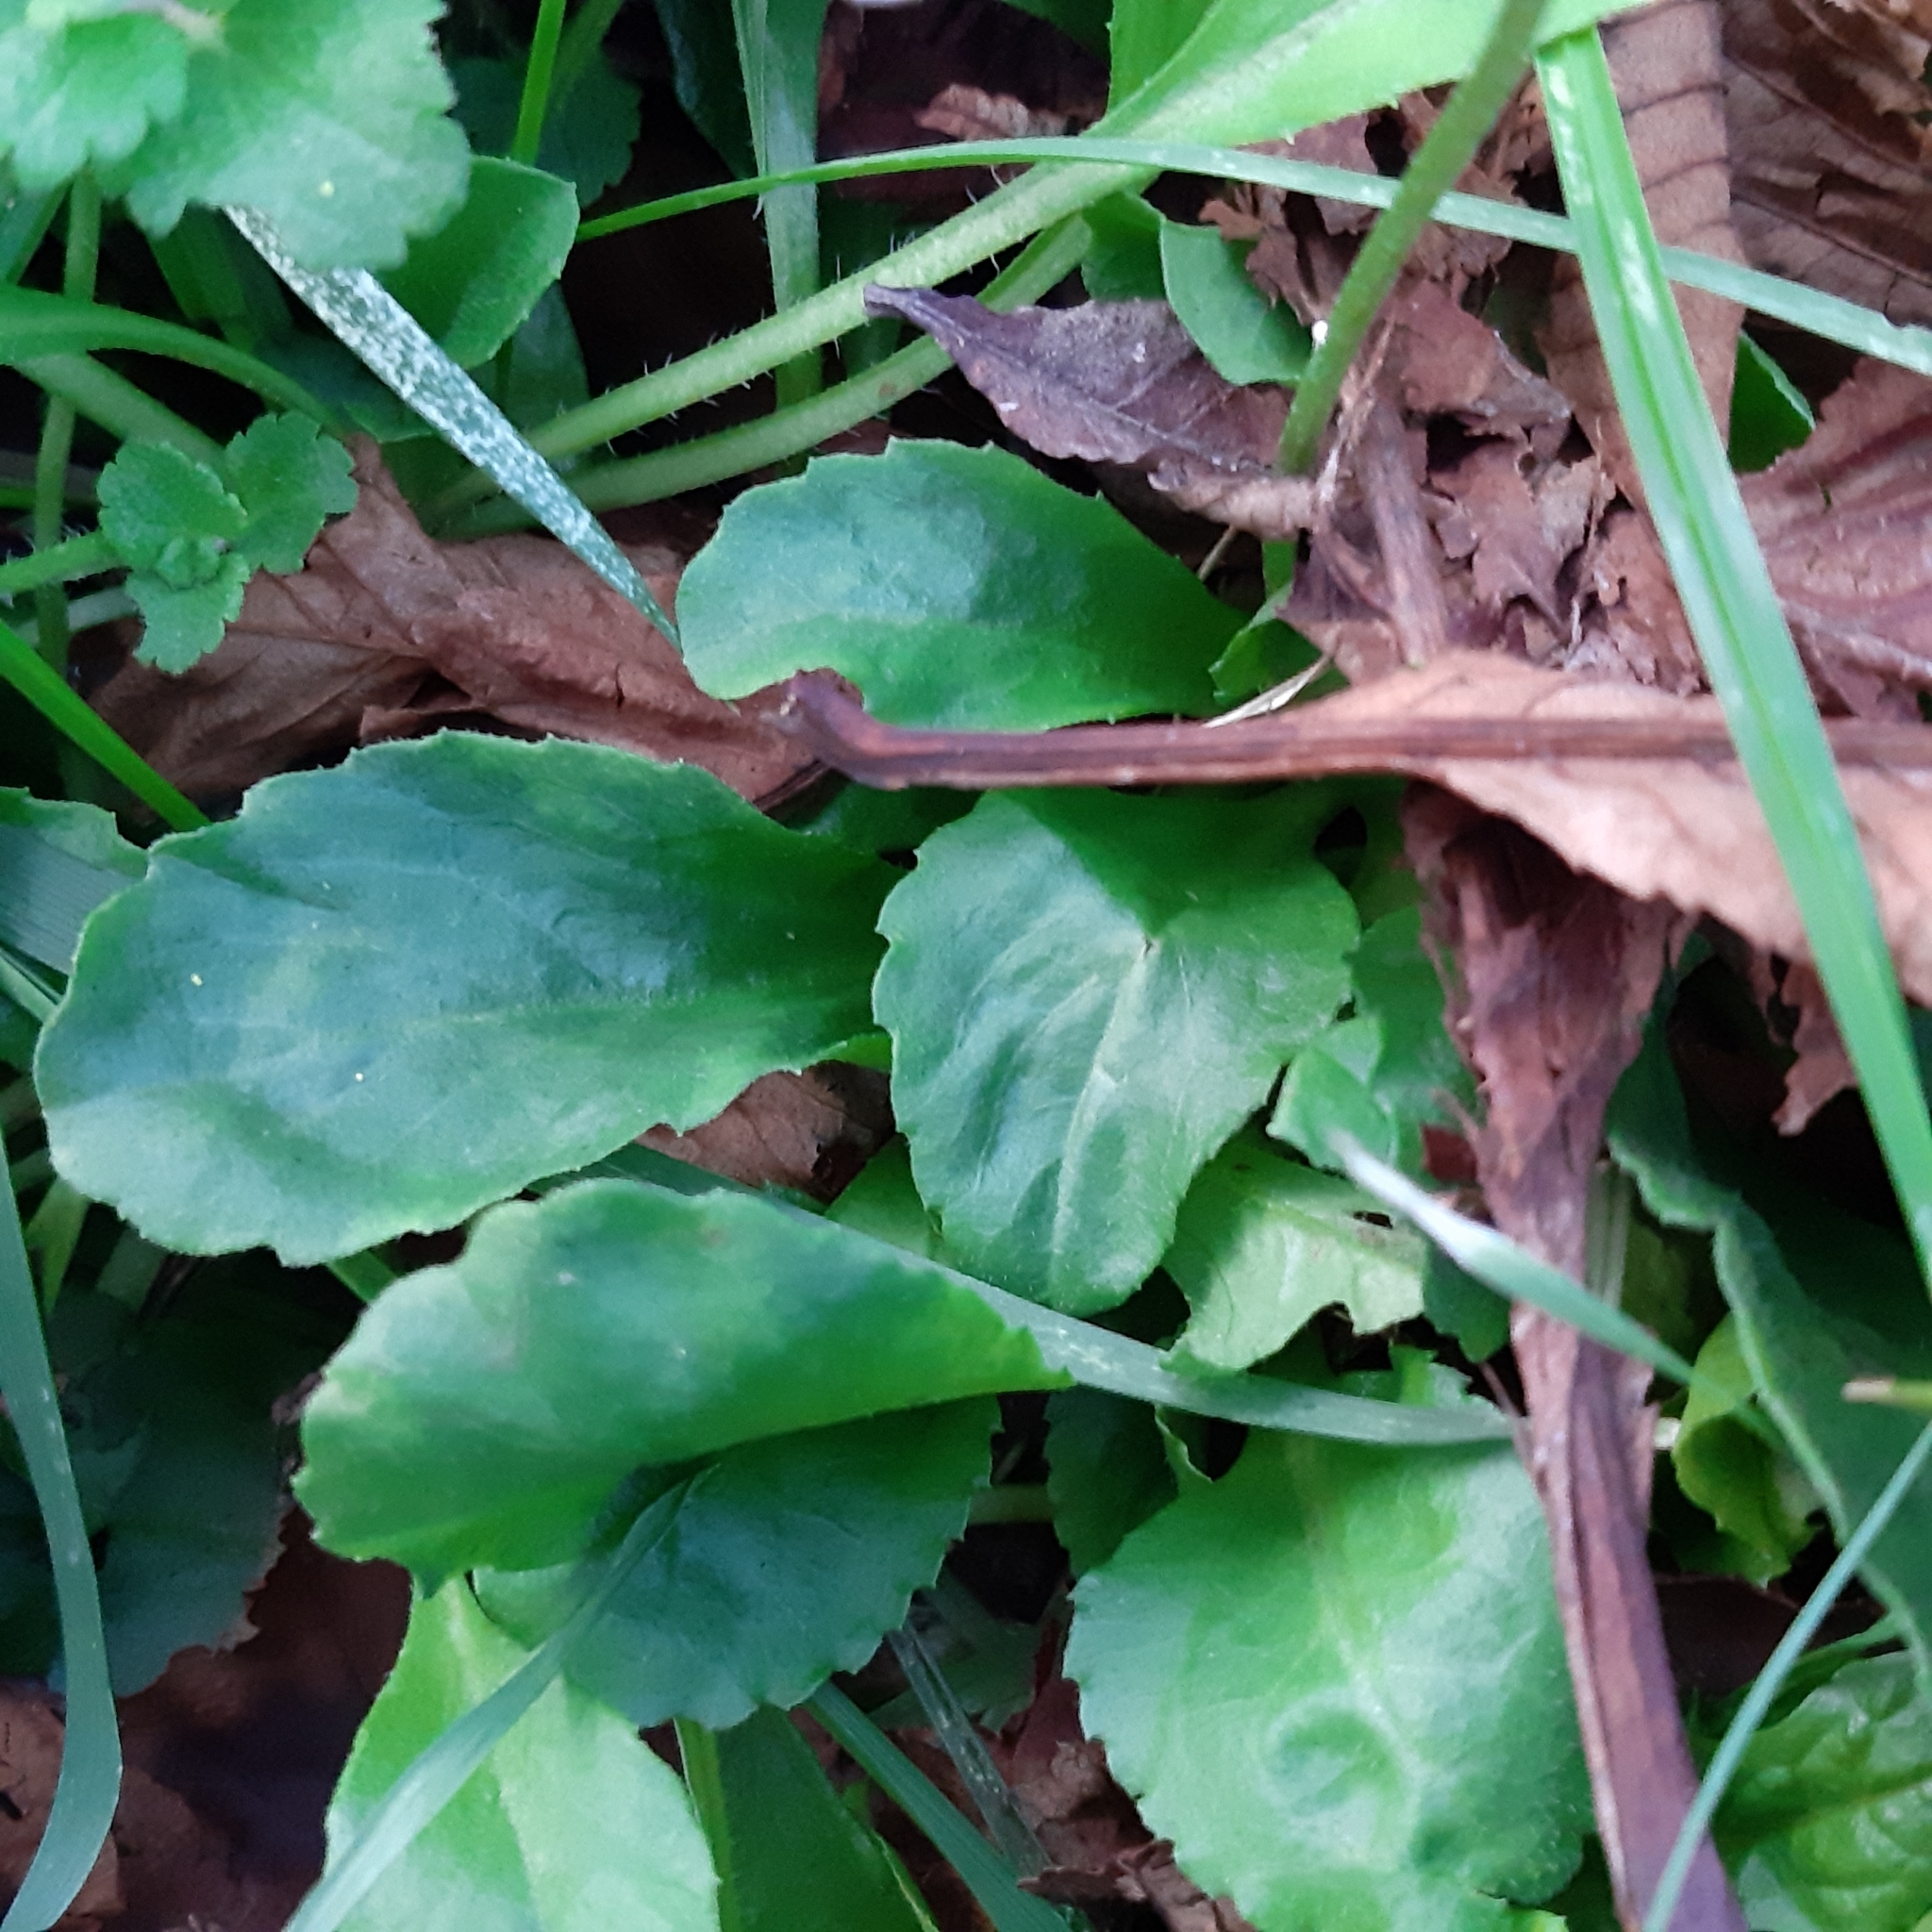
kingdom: Plantae
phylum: Tracheophyta
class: Magnoliopsida
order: Asterales
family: Asteraceae
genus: Bellis
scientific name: Bellis perennis
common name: Lawndaisy
